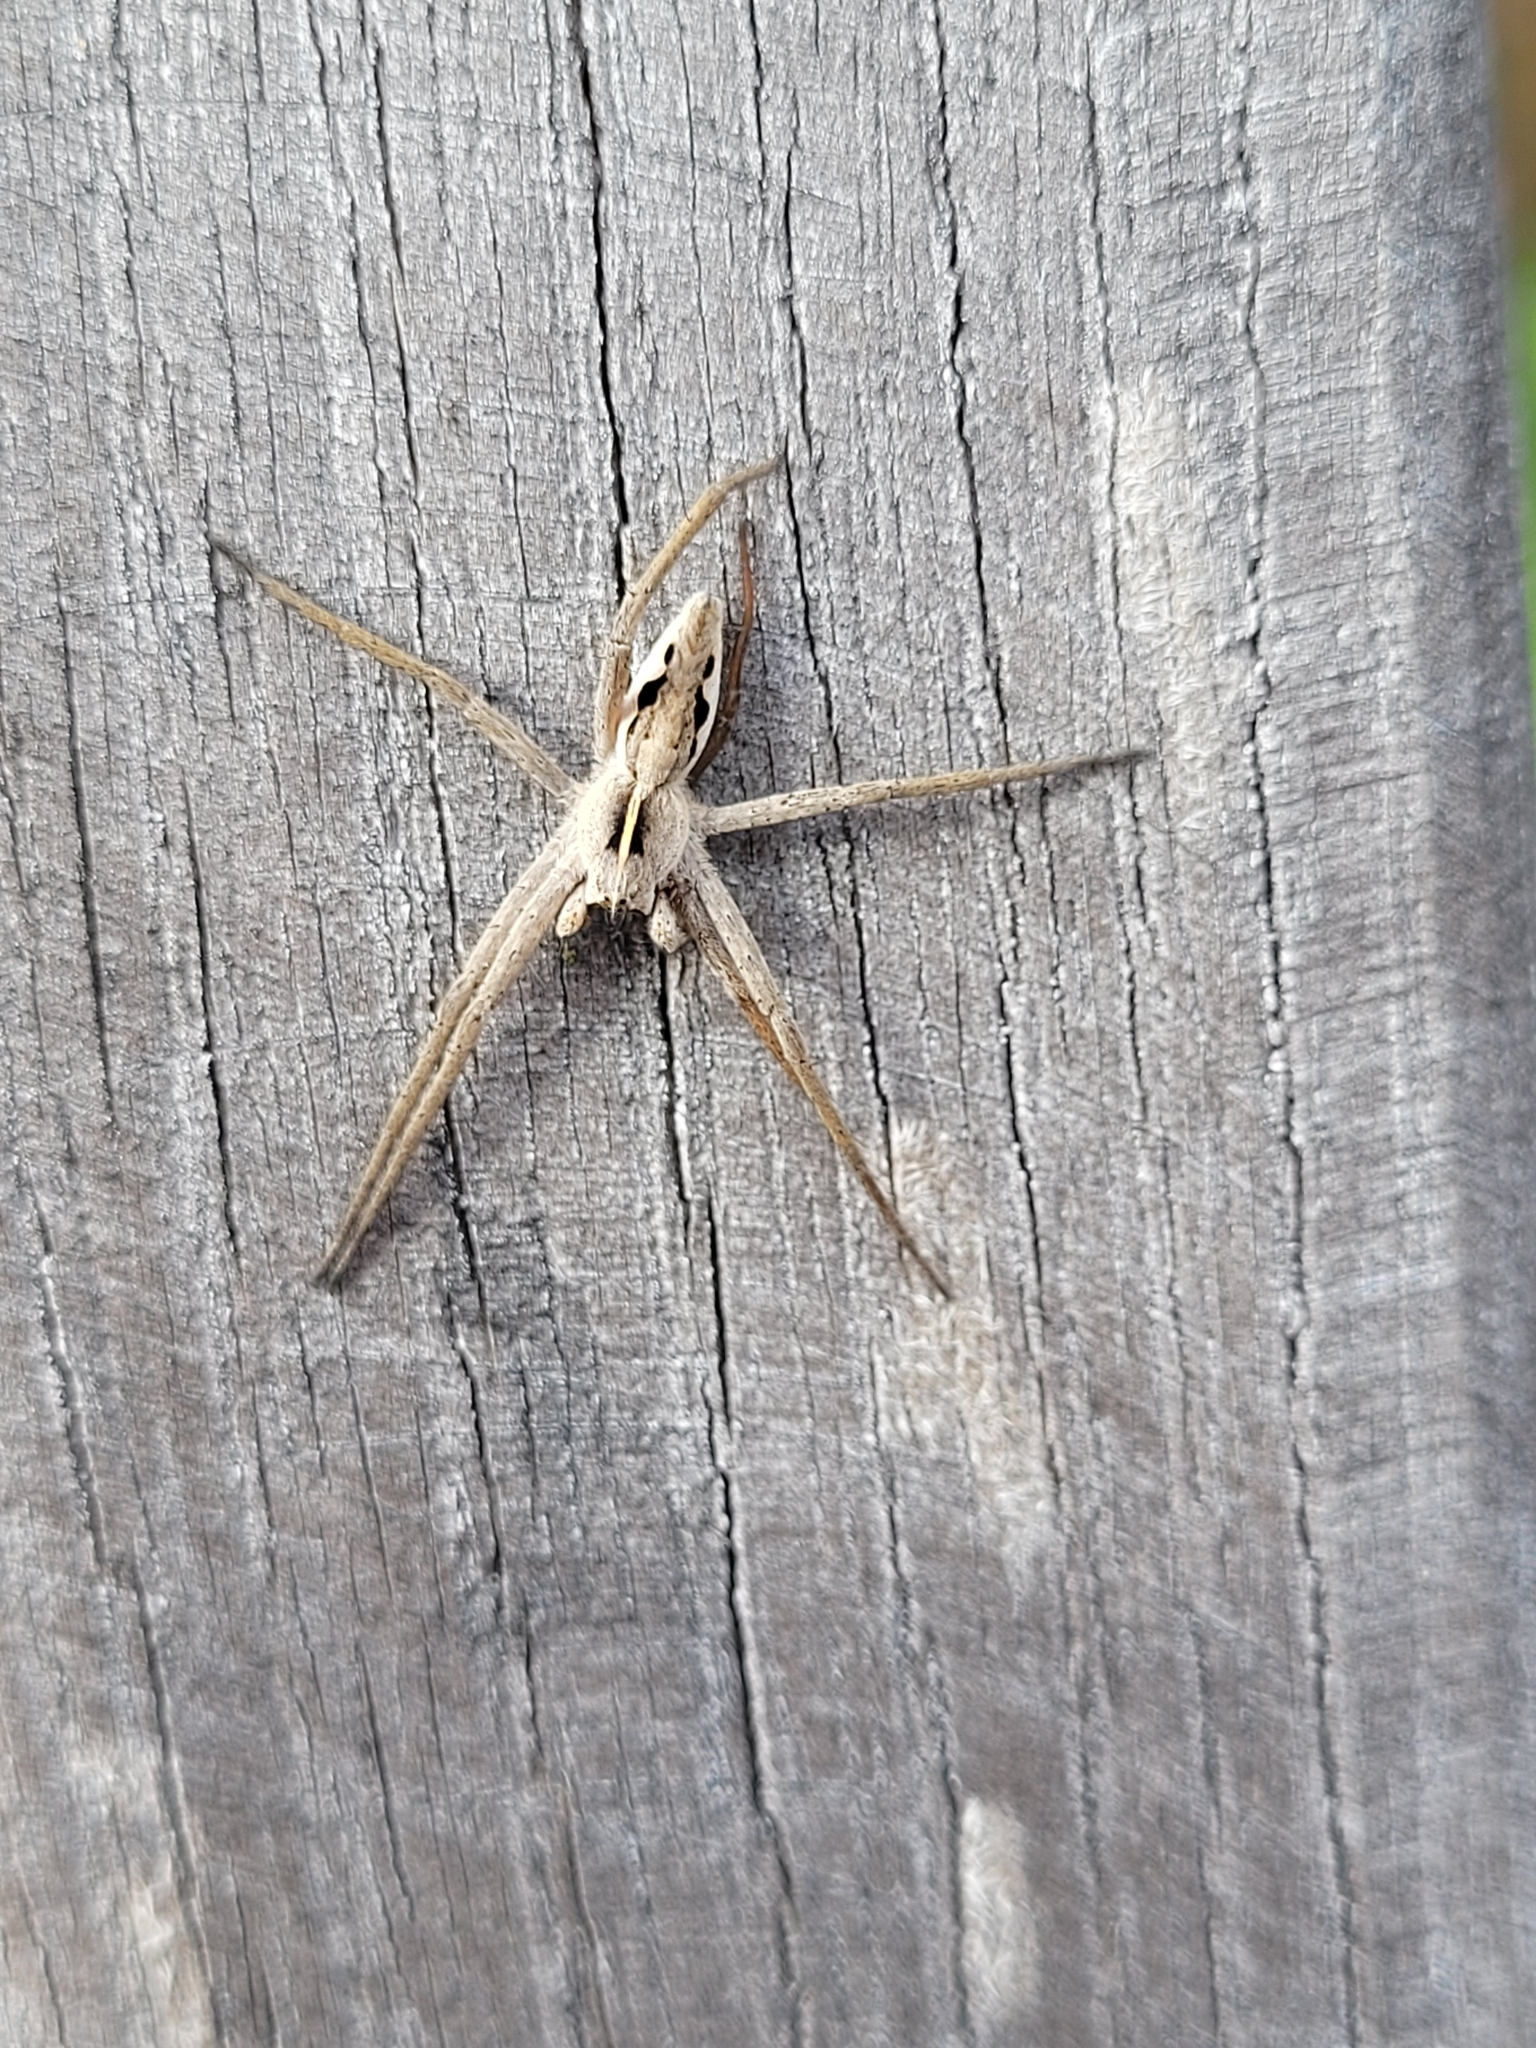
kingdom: Animalia
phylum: Arthropoda
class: Arachnida
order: Araneae
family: Pisauridae
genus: Pisaura
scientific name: Pisaura mirabilis
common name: Tent spider
